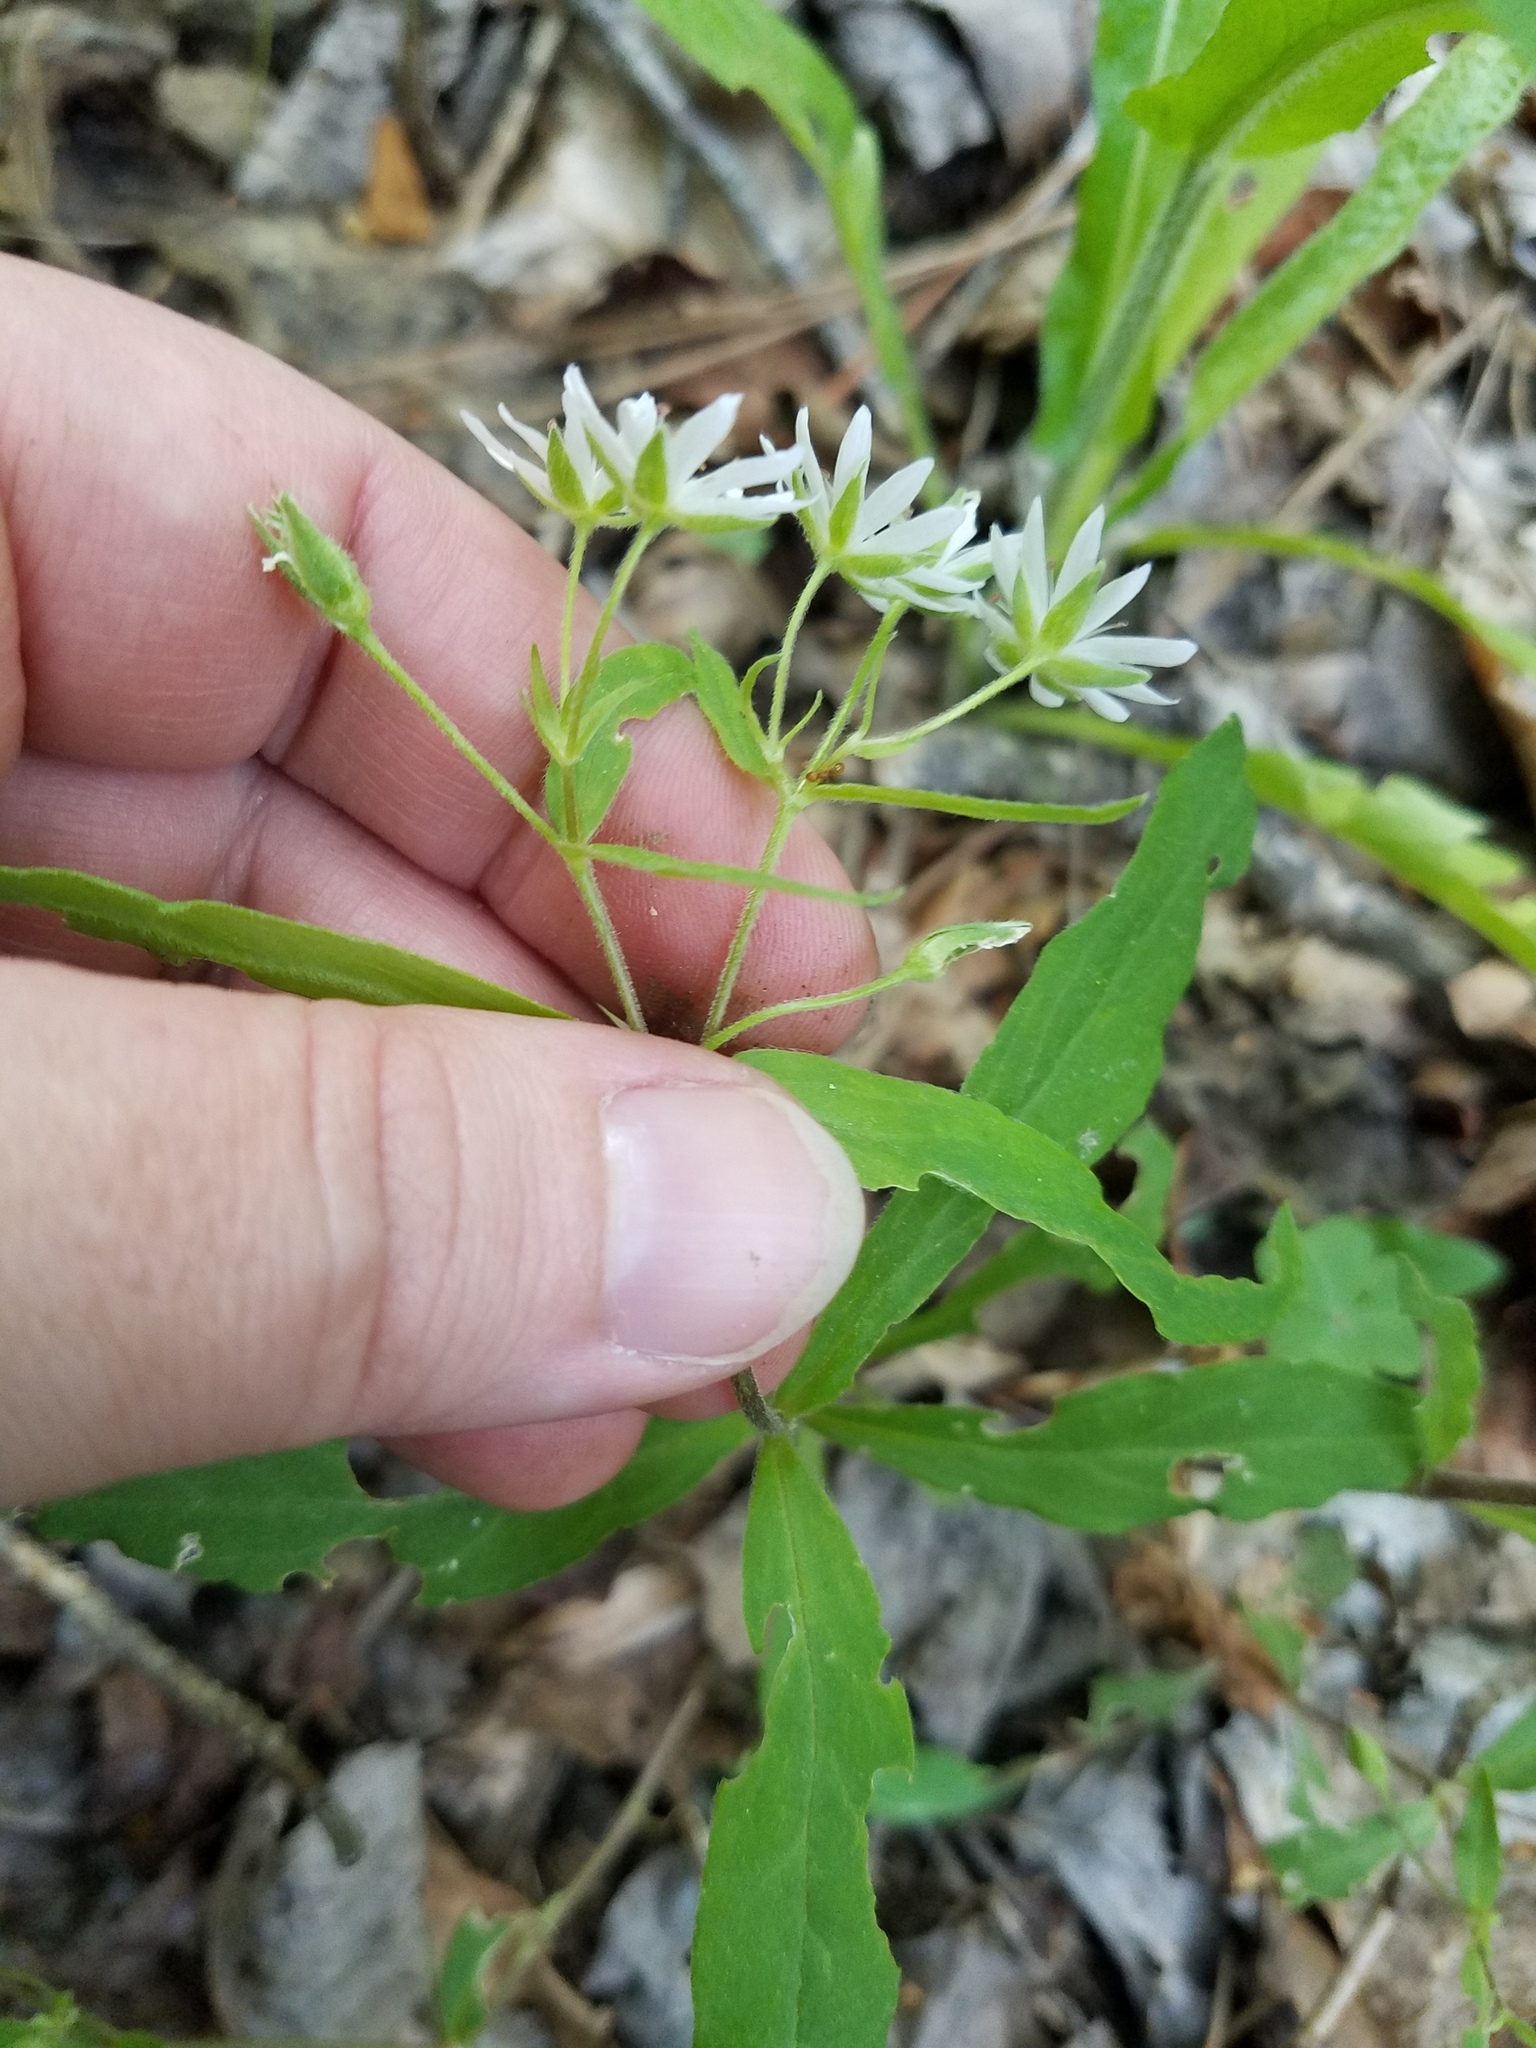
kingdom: Plantae
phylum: Tracheophyta
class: Magnoliopsida
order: Caryophyllales
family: Caryophyllaceae
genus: Stellaria
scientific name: Stellaria pubera
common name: Star chickweed
